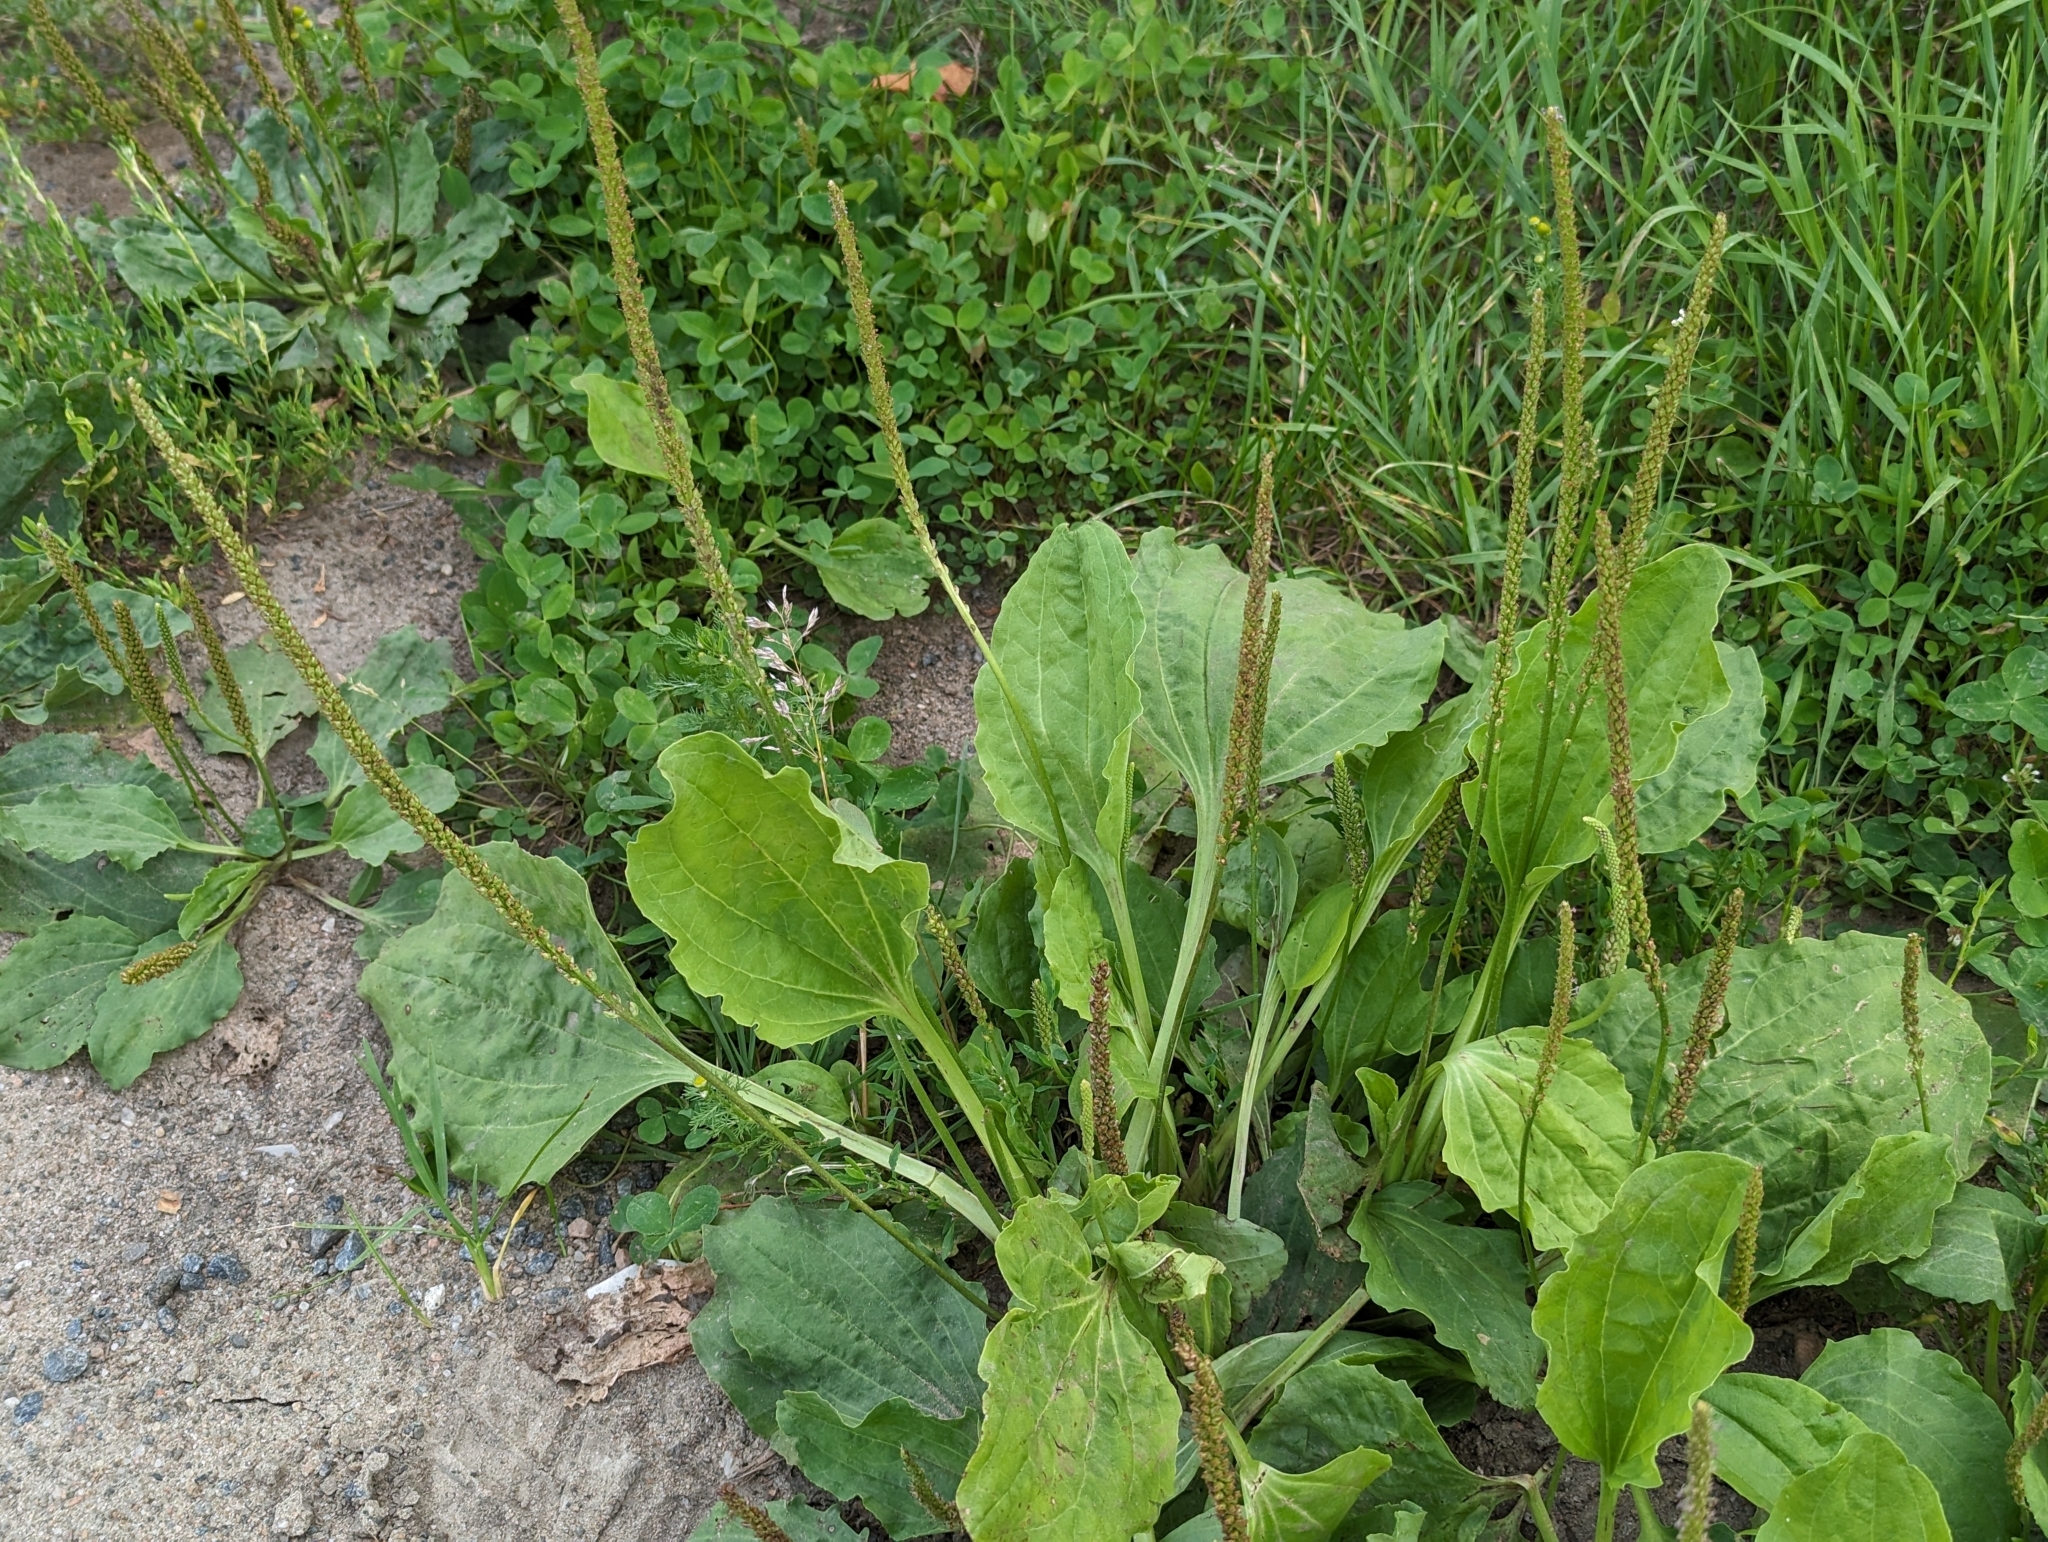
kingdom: Plantae
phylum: Tracheophyta
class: Magnoliopsida
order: Lamiales
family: Plantaginaceae
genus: Plantago
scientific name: Plantago major
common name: Common plantain
